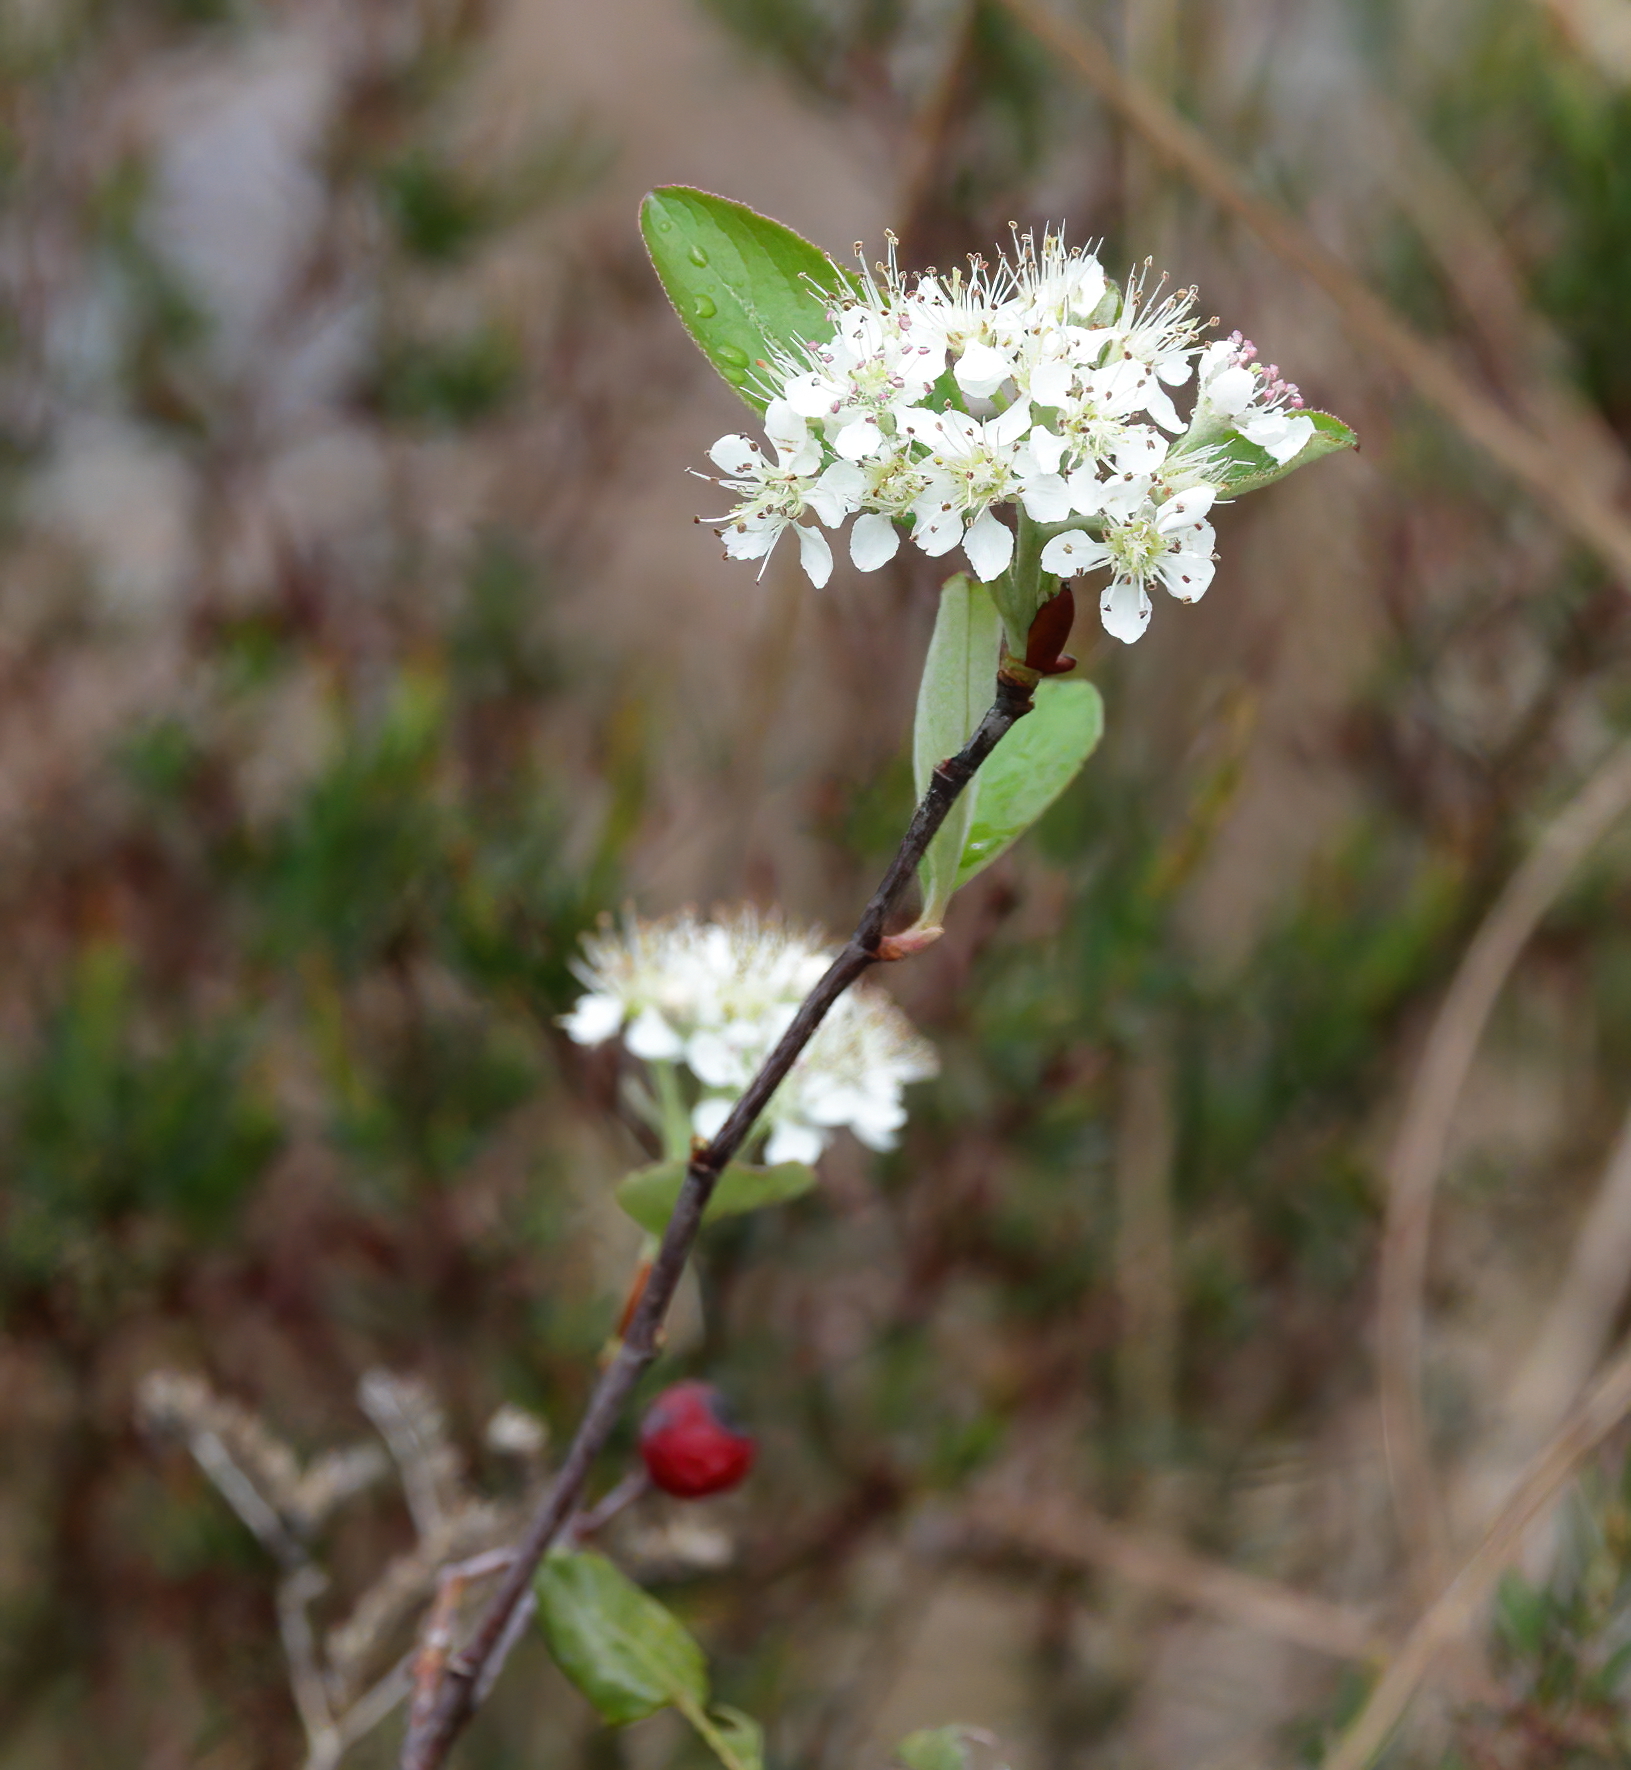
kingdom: Plantae
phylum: Tracheophyta
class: Magnoliopsida
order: Rosales
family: Rosaceae
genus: Aronia
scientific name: Aronia arbutifolia
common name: Red chokeberry
